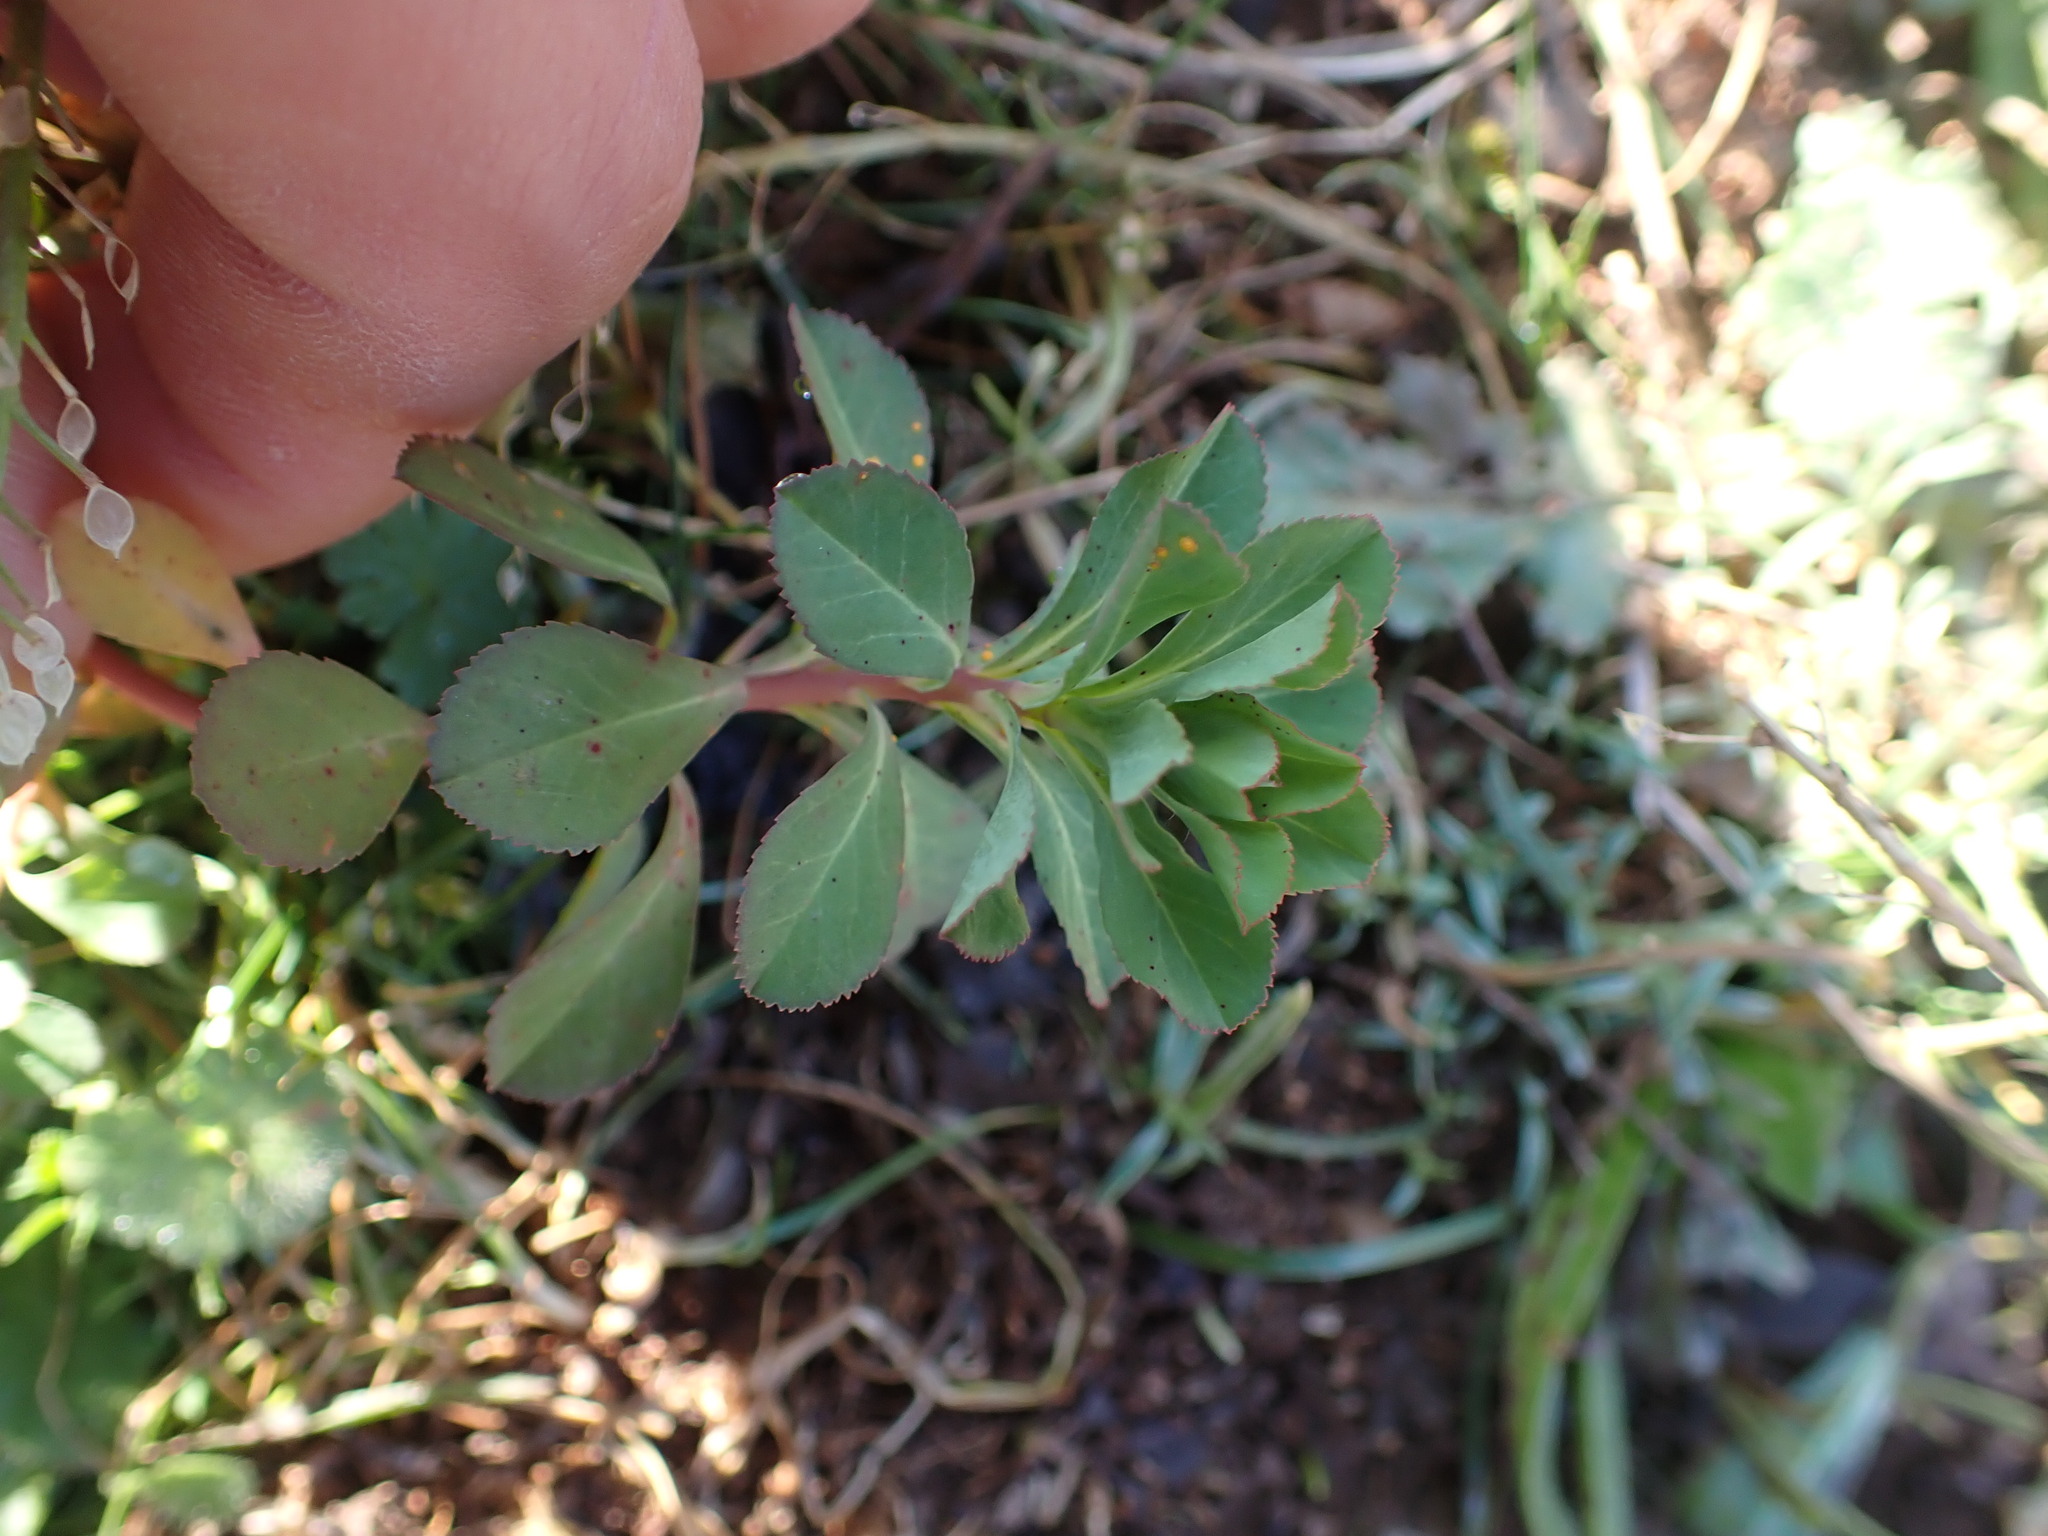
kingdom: Plantae
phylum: Tracheophyta
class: Magnoliopsida
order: Malpighiales
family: Euphorbiaceae
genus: Euphorbia
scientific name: Euphorbia helioscopia
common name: Sun spurge
